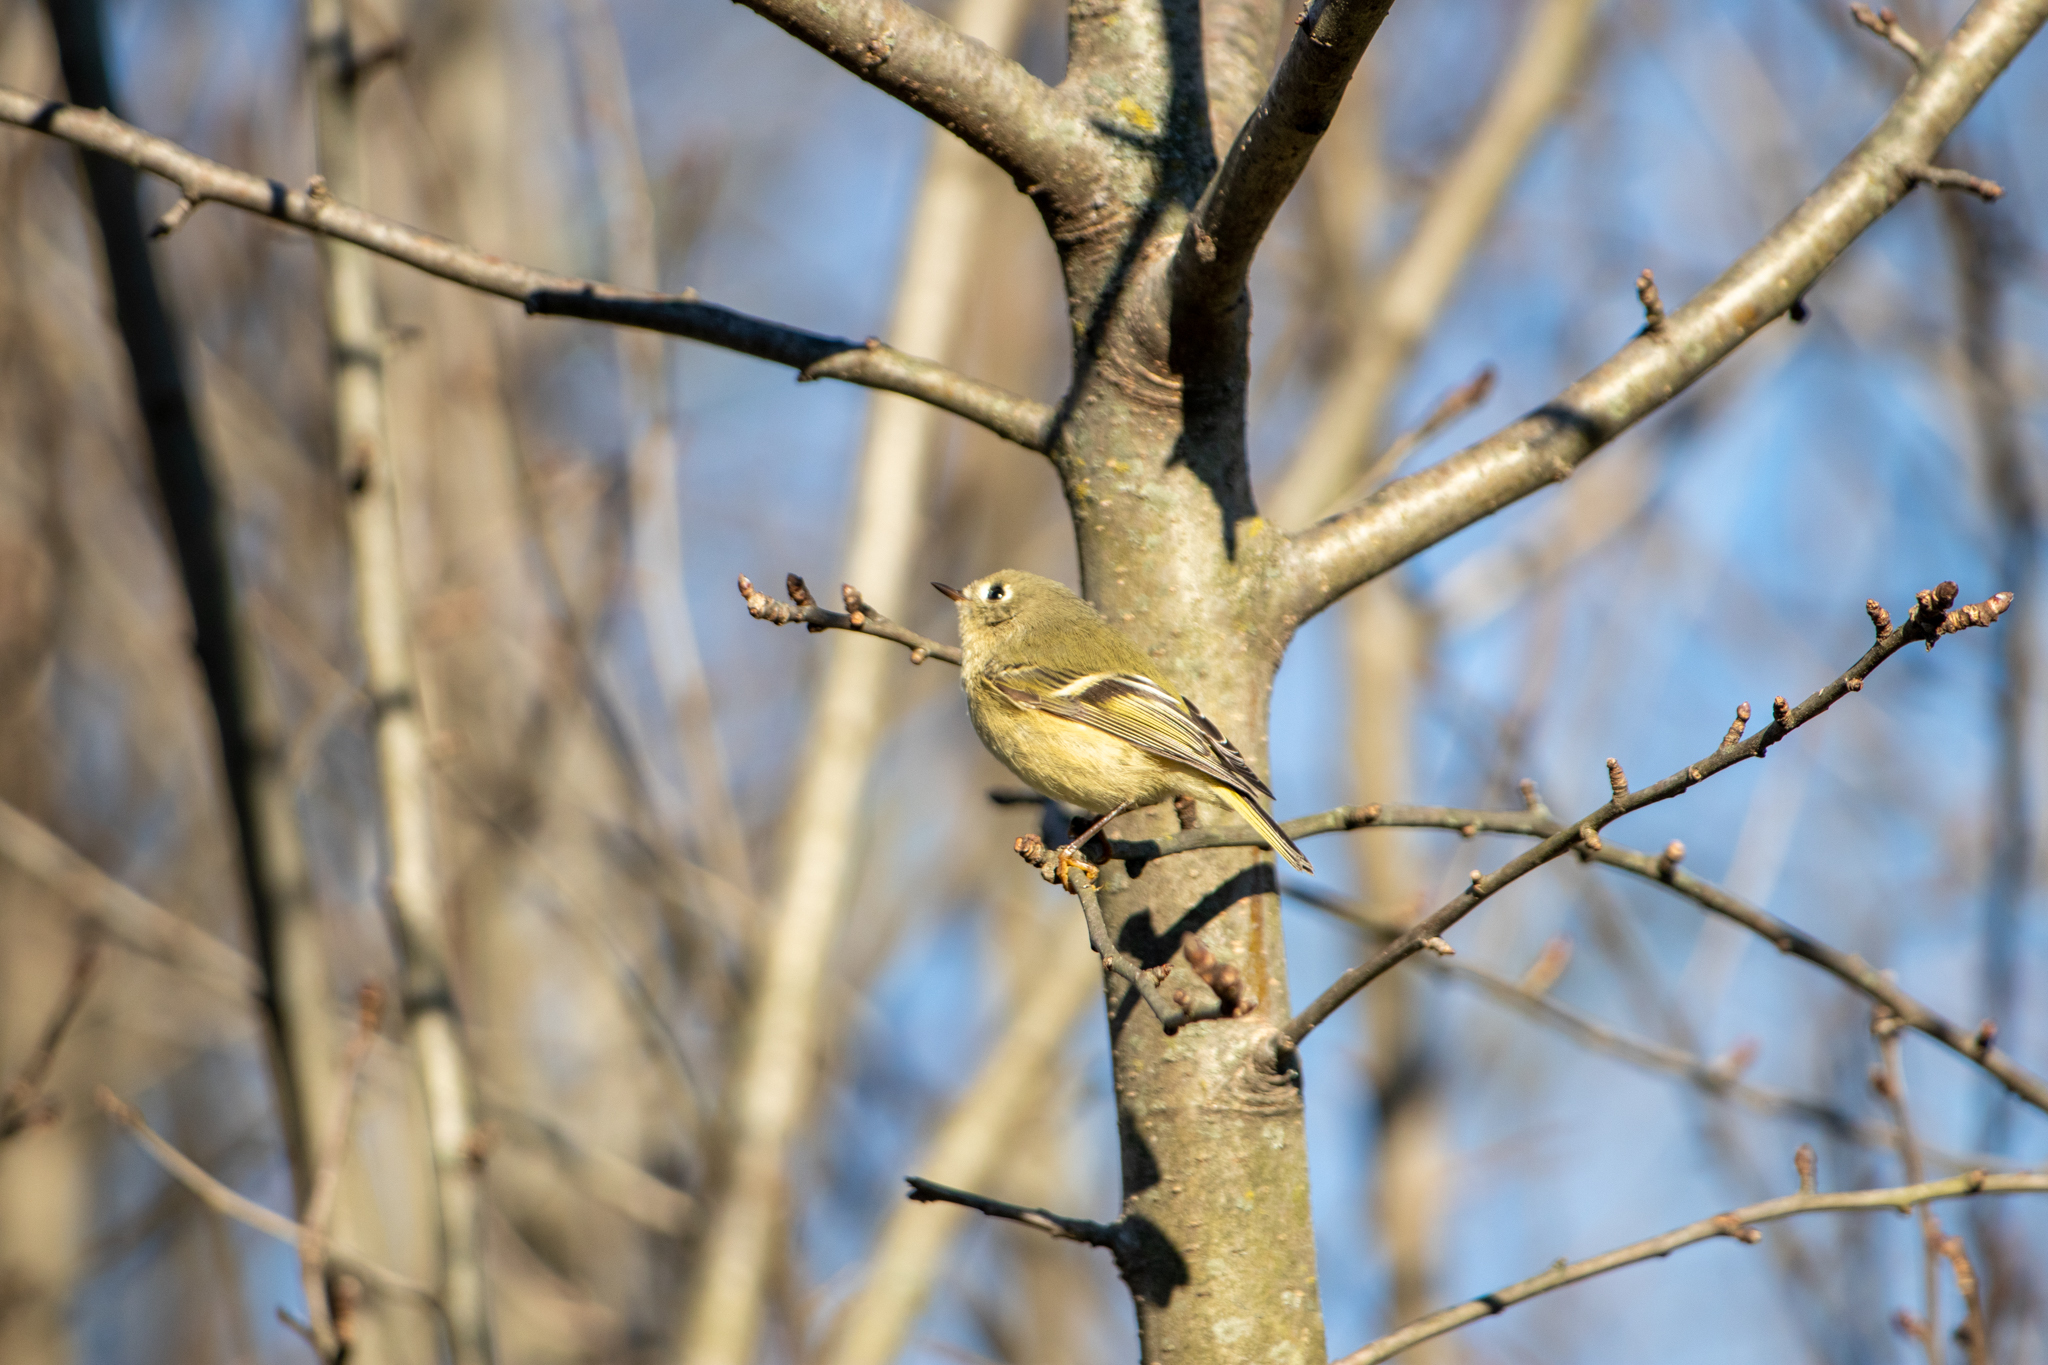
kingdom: Animalia
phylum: Chordata
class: Aves
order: Passeriformes
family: Regulidae
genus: Regulus
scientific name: Regulus calendula
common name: Ruby-crowned kinglet
